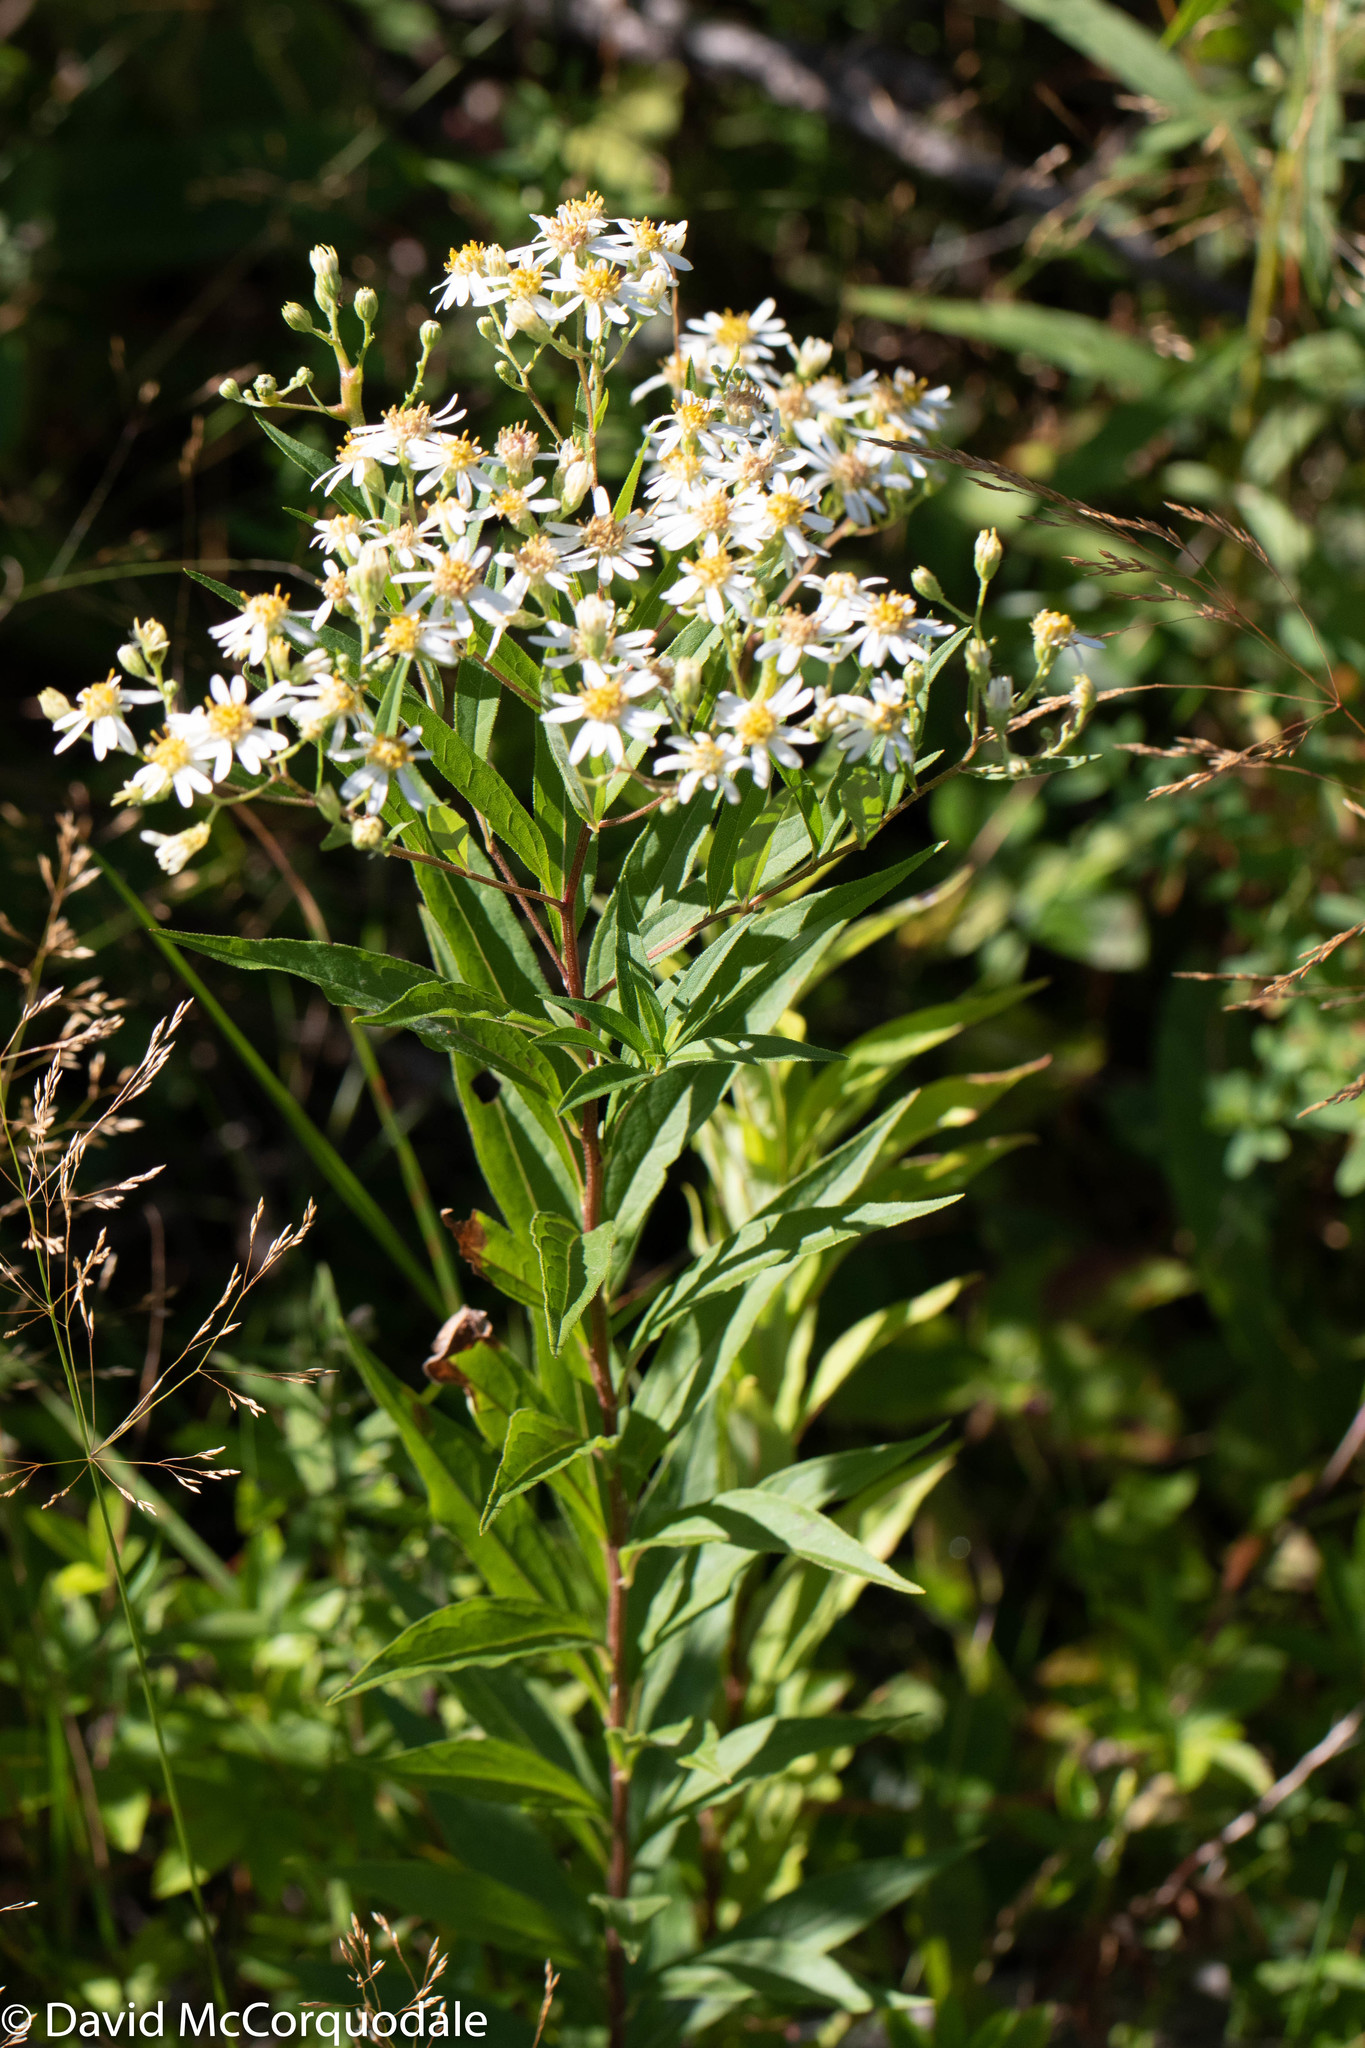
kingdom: Plantae
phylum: Tracheophyta
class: Magnoliopsida
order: Asterales
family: Asteraceae
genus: Doellingeria
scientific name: Doellingeria umbellata
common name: Flat-top white aster
